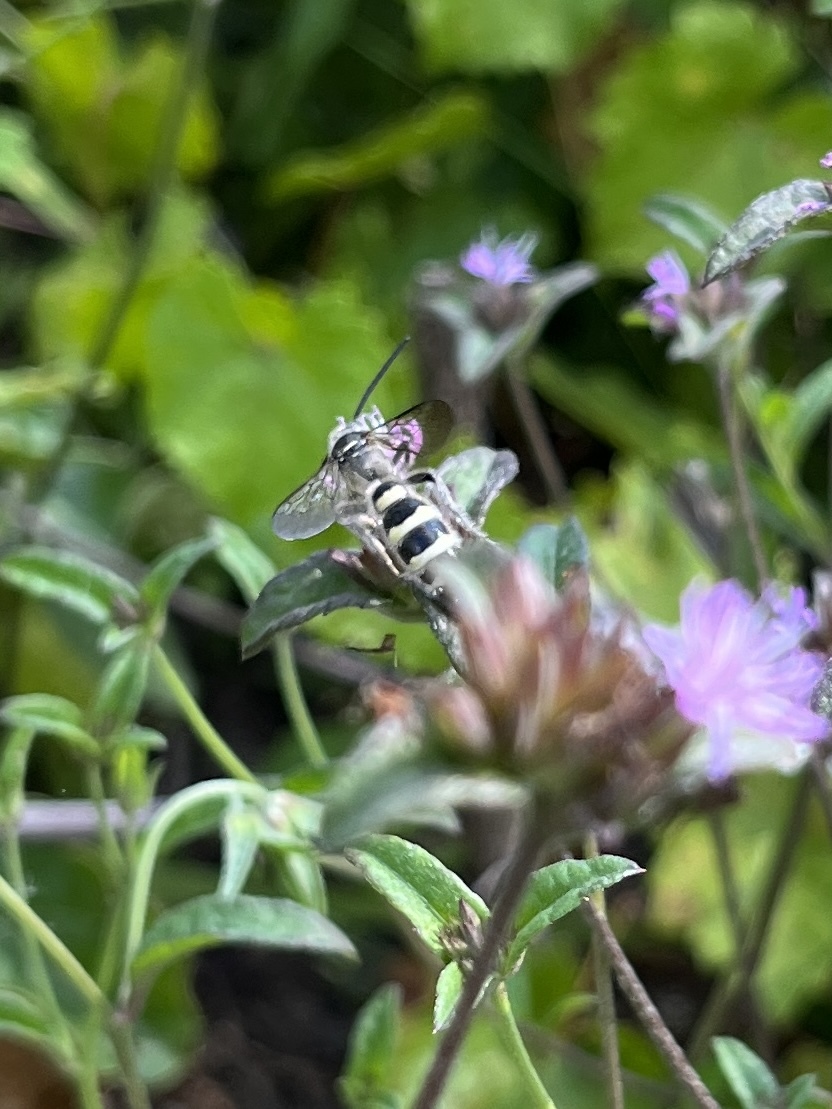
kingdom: Animalia
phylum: Arthropoda
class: Insecta
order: Hymenoptera
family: Scoliidae
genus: Dielis
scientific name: Dielis
